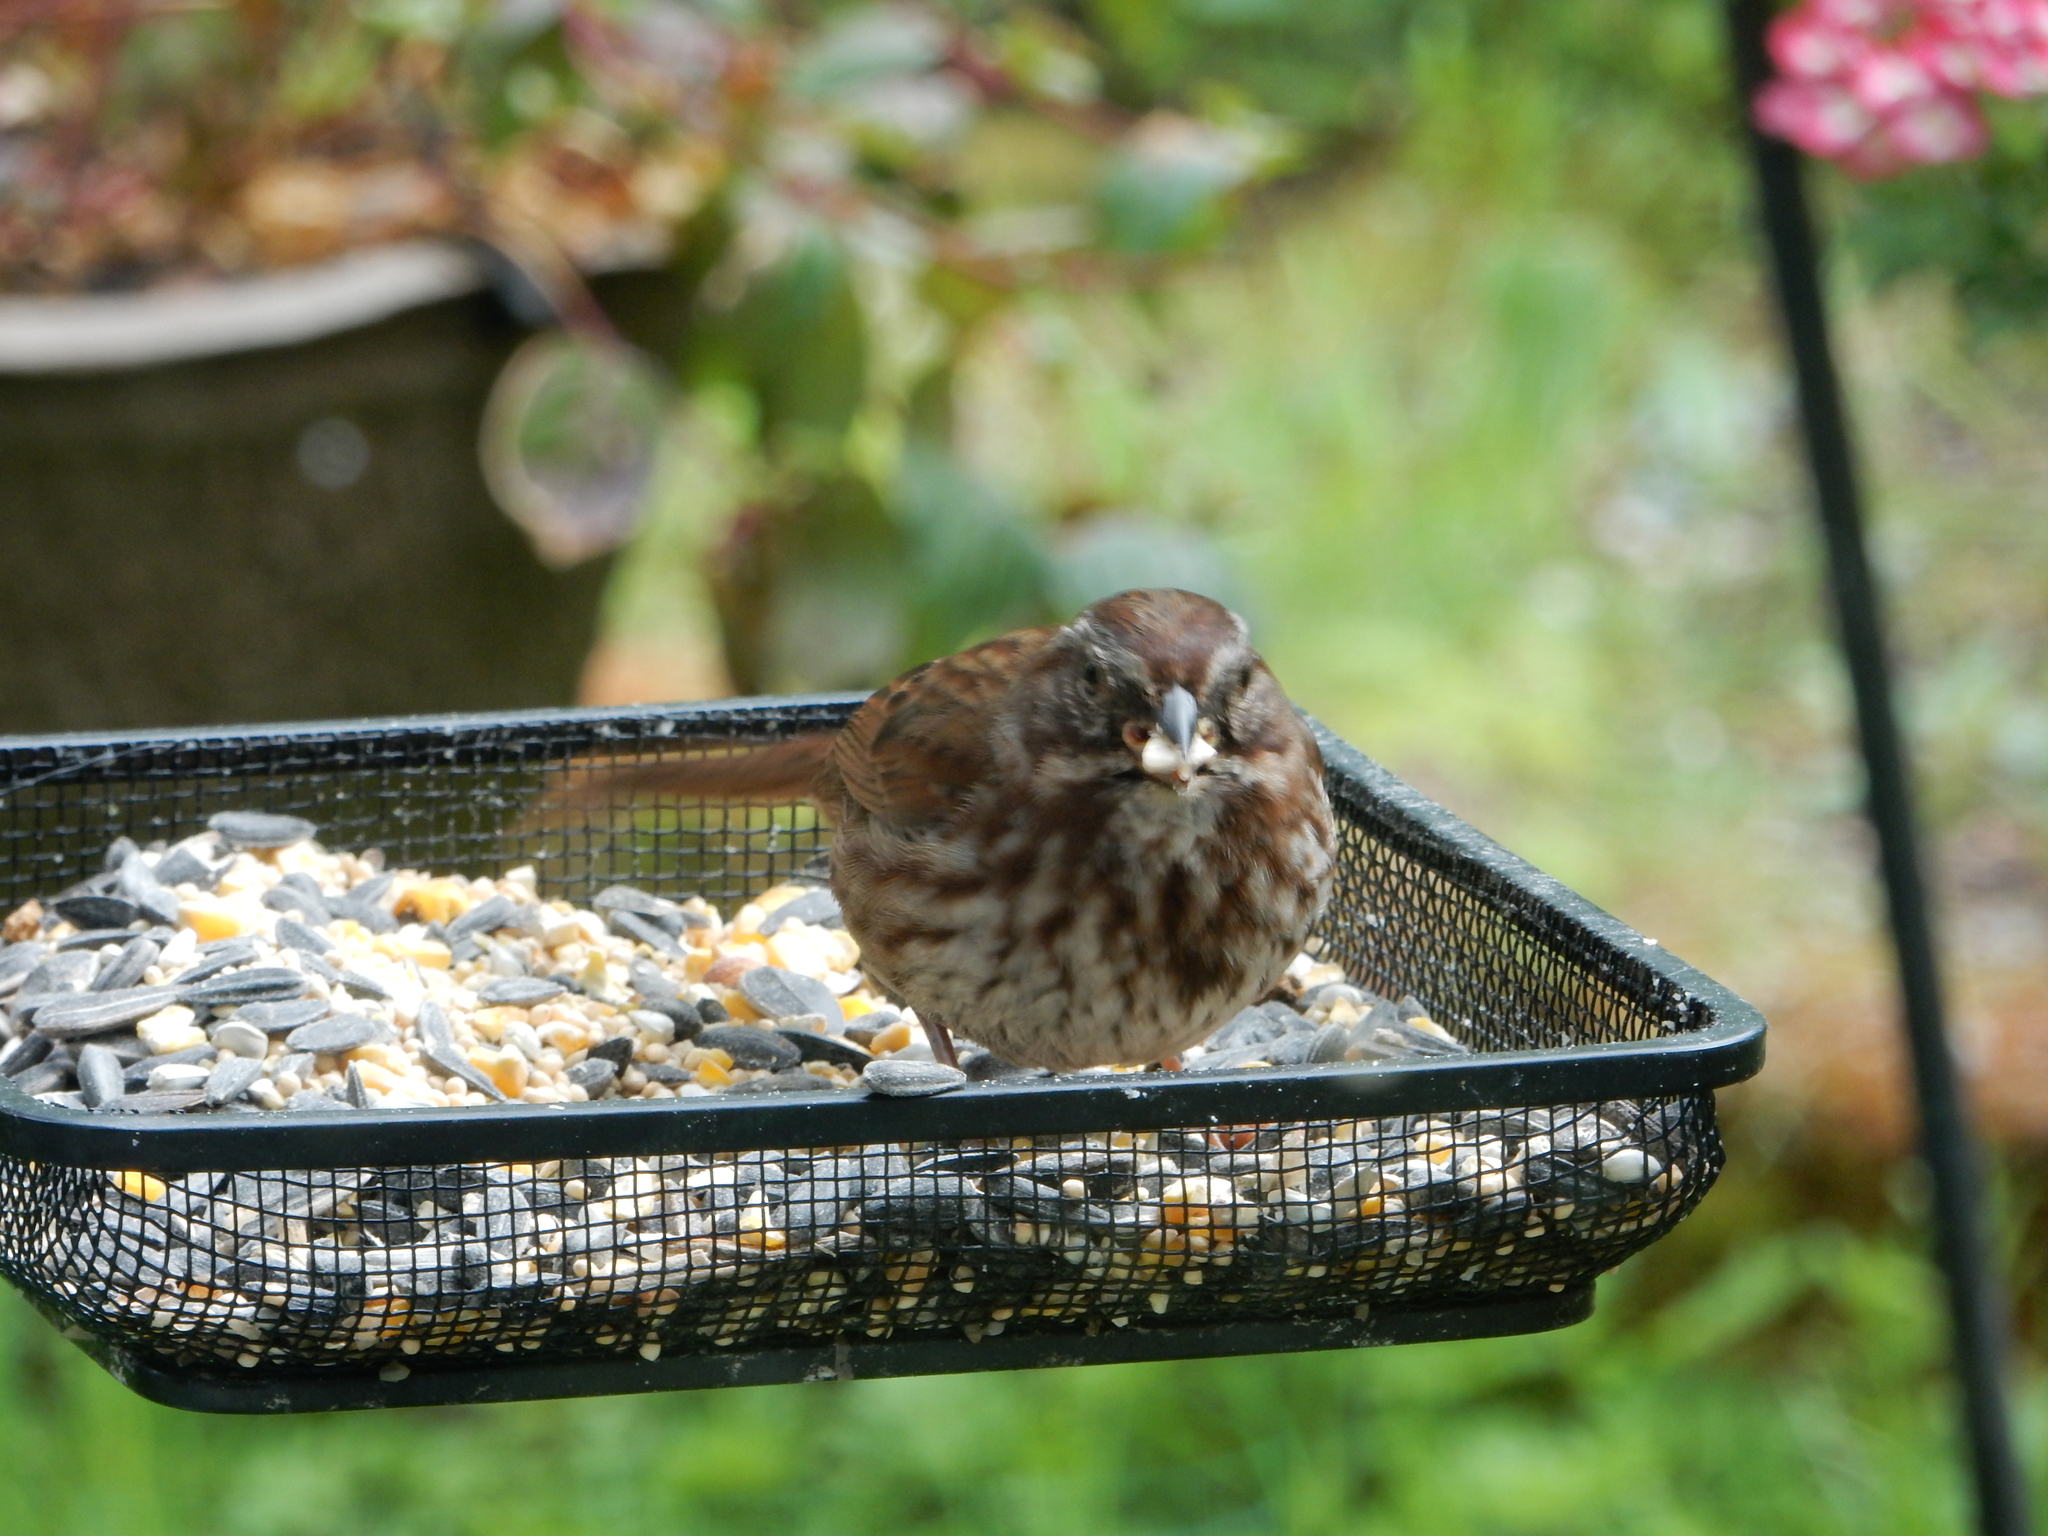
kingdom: Animalia
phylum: Chordata
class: Aves
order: Passeriformes
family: Passerellidae
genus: Melospiza
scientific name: Melospiza melodia
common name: Song sparrow
